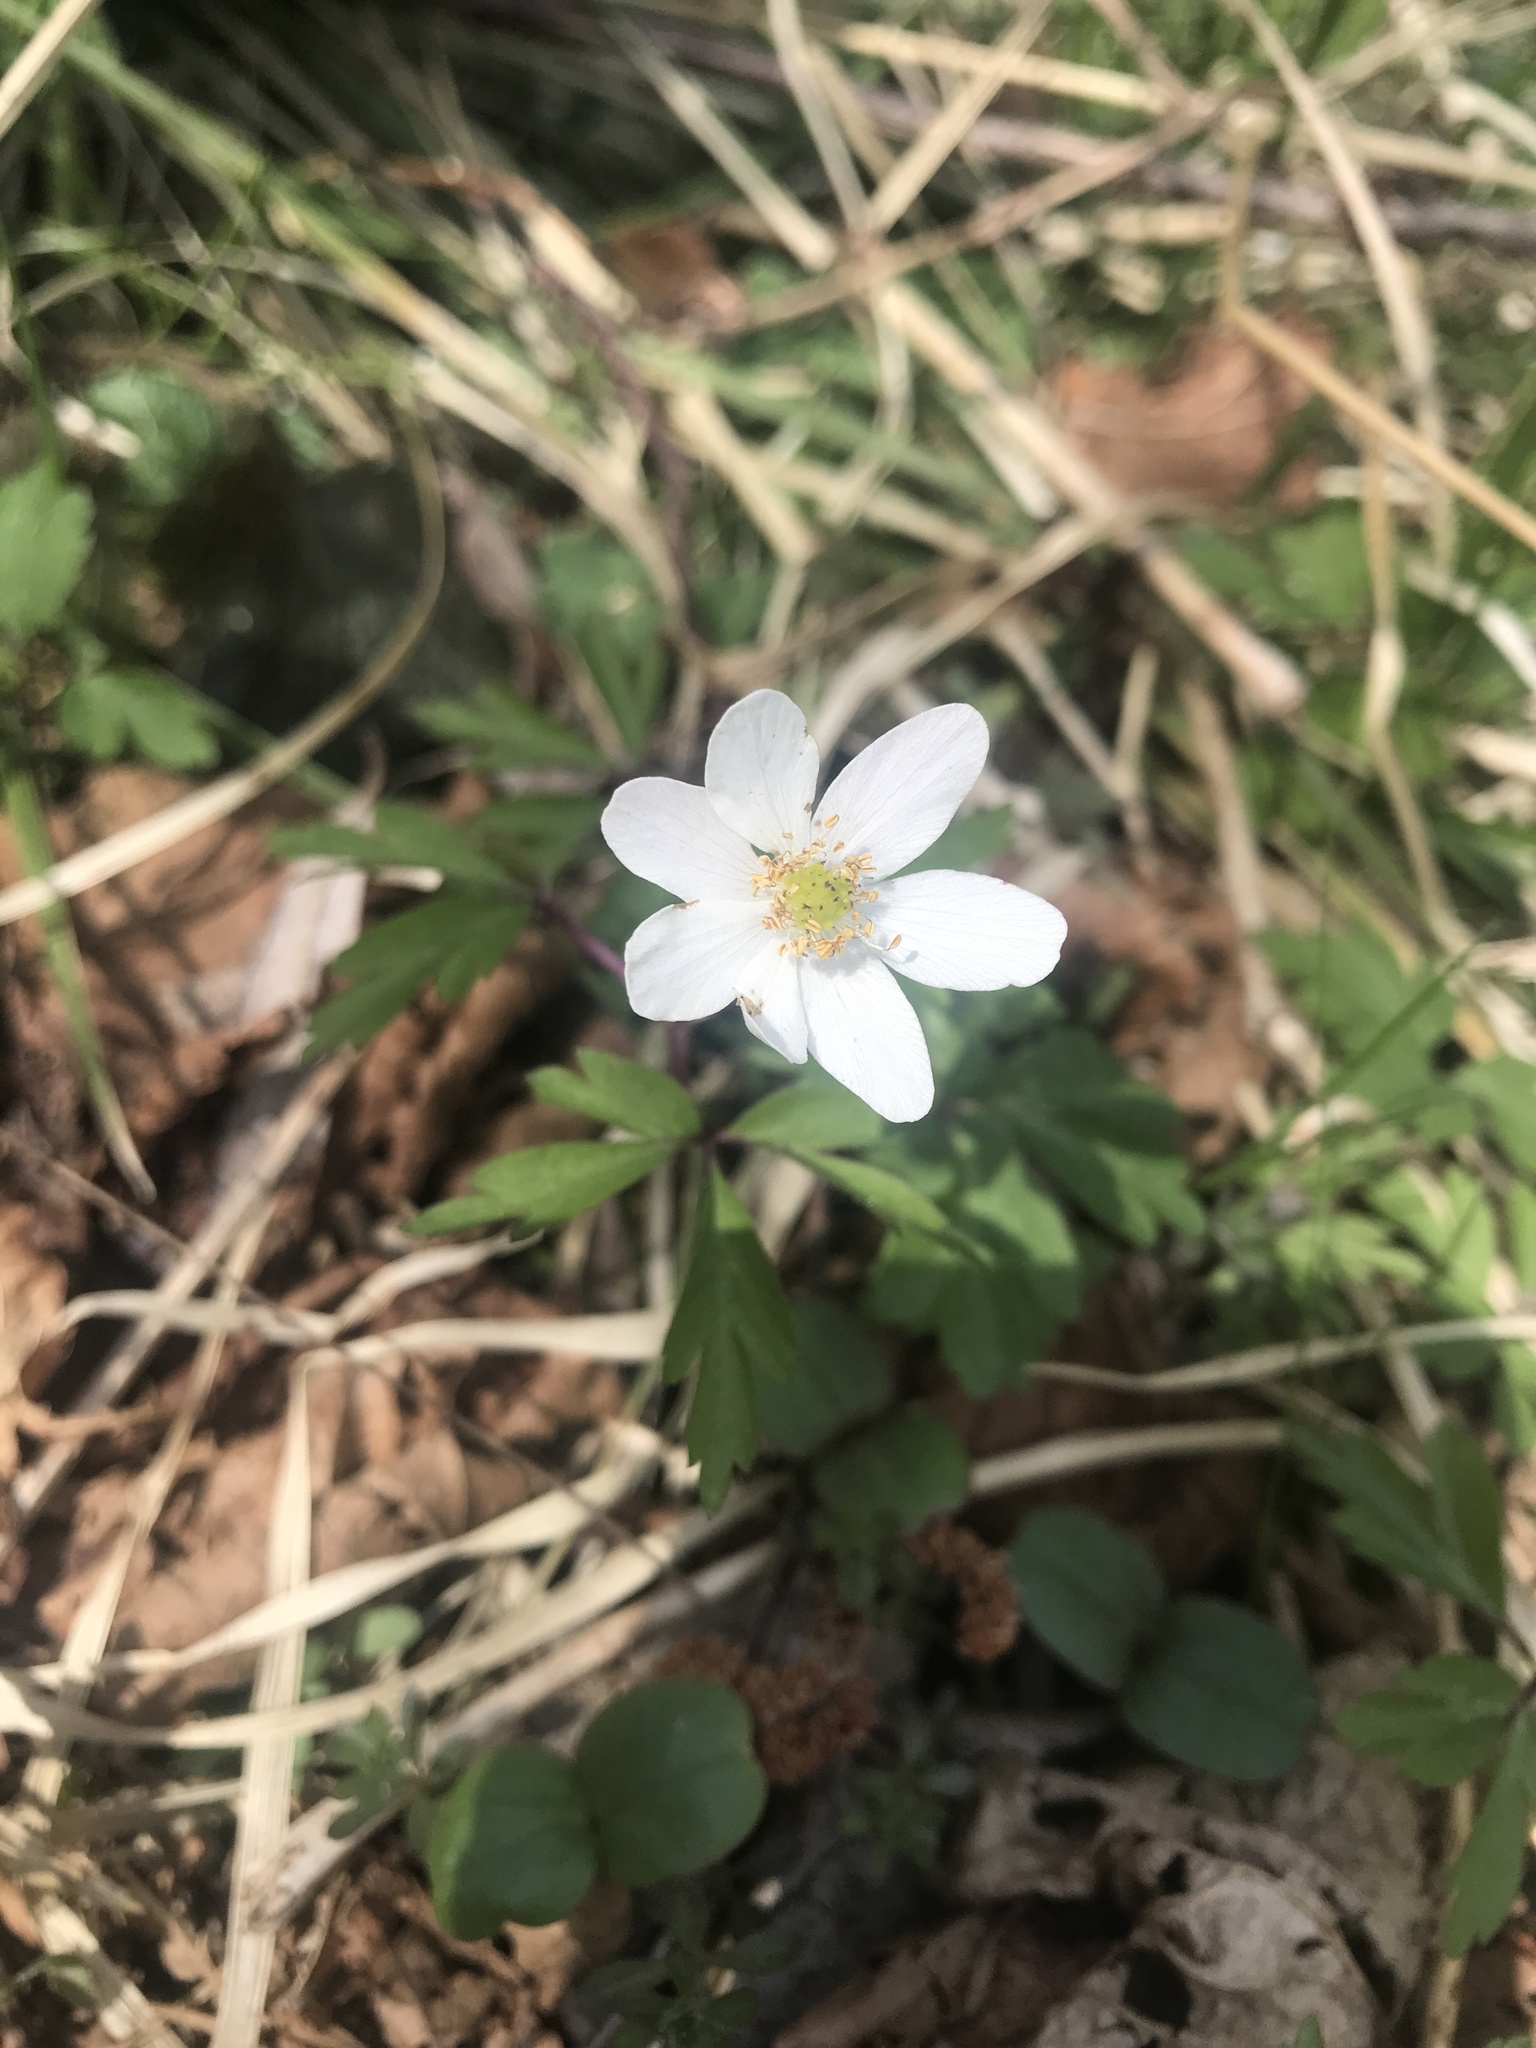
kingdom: Plantae
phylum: Tracheophyta
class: Magnoliopsida
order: Ranunculales
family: Ranunculaceae
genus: Anemone
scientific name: Anemone nemorosa
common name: Wood anemone
